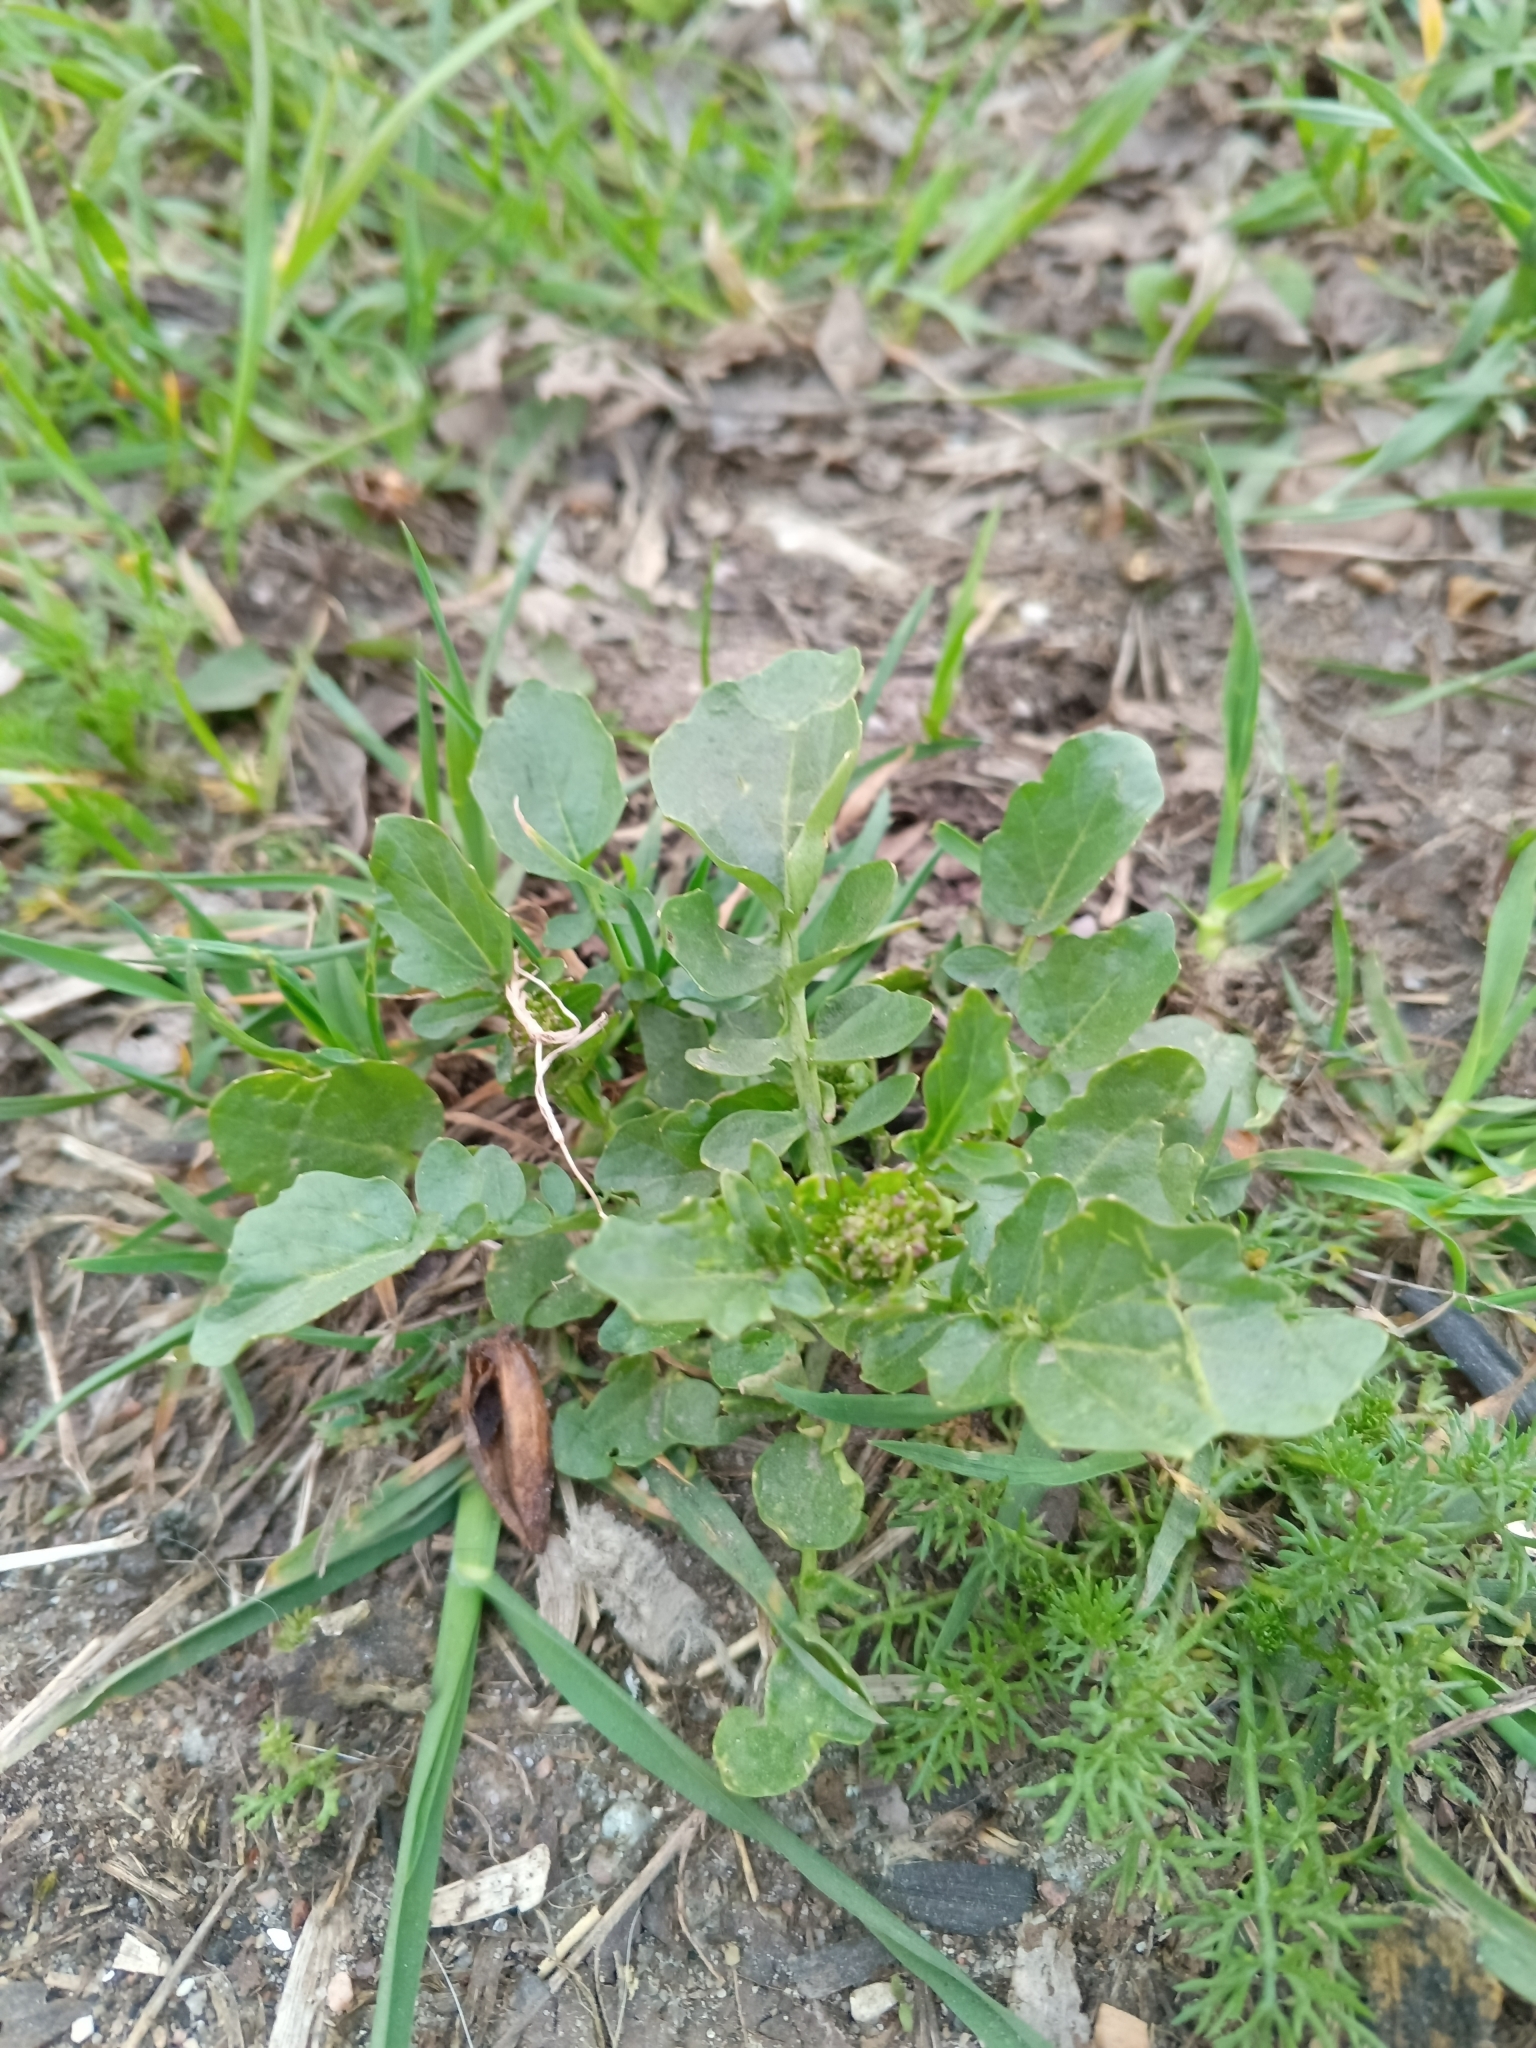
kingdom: Plantae
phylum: Tracheophyta
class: Magnoliopsida
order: Brassicales
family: Brassicaceae
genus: Barbarea
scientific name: Barbarea vulgaris
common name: Cressy-greens
